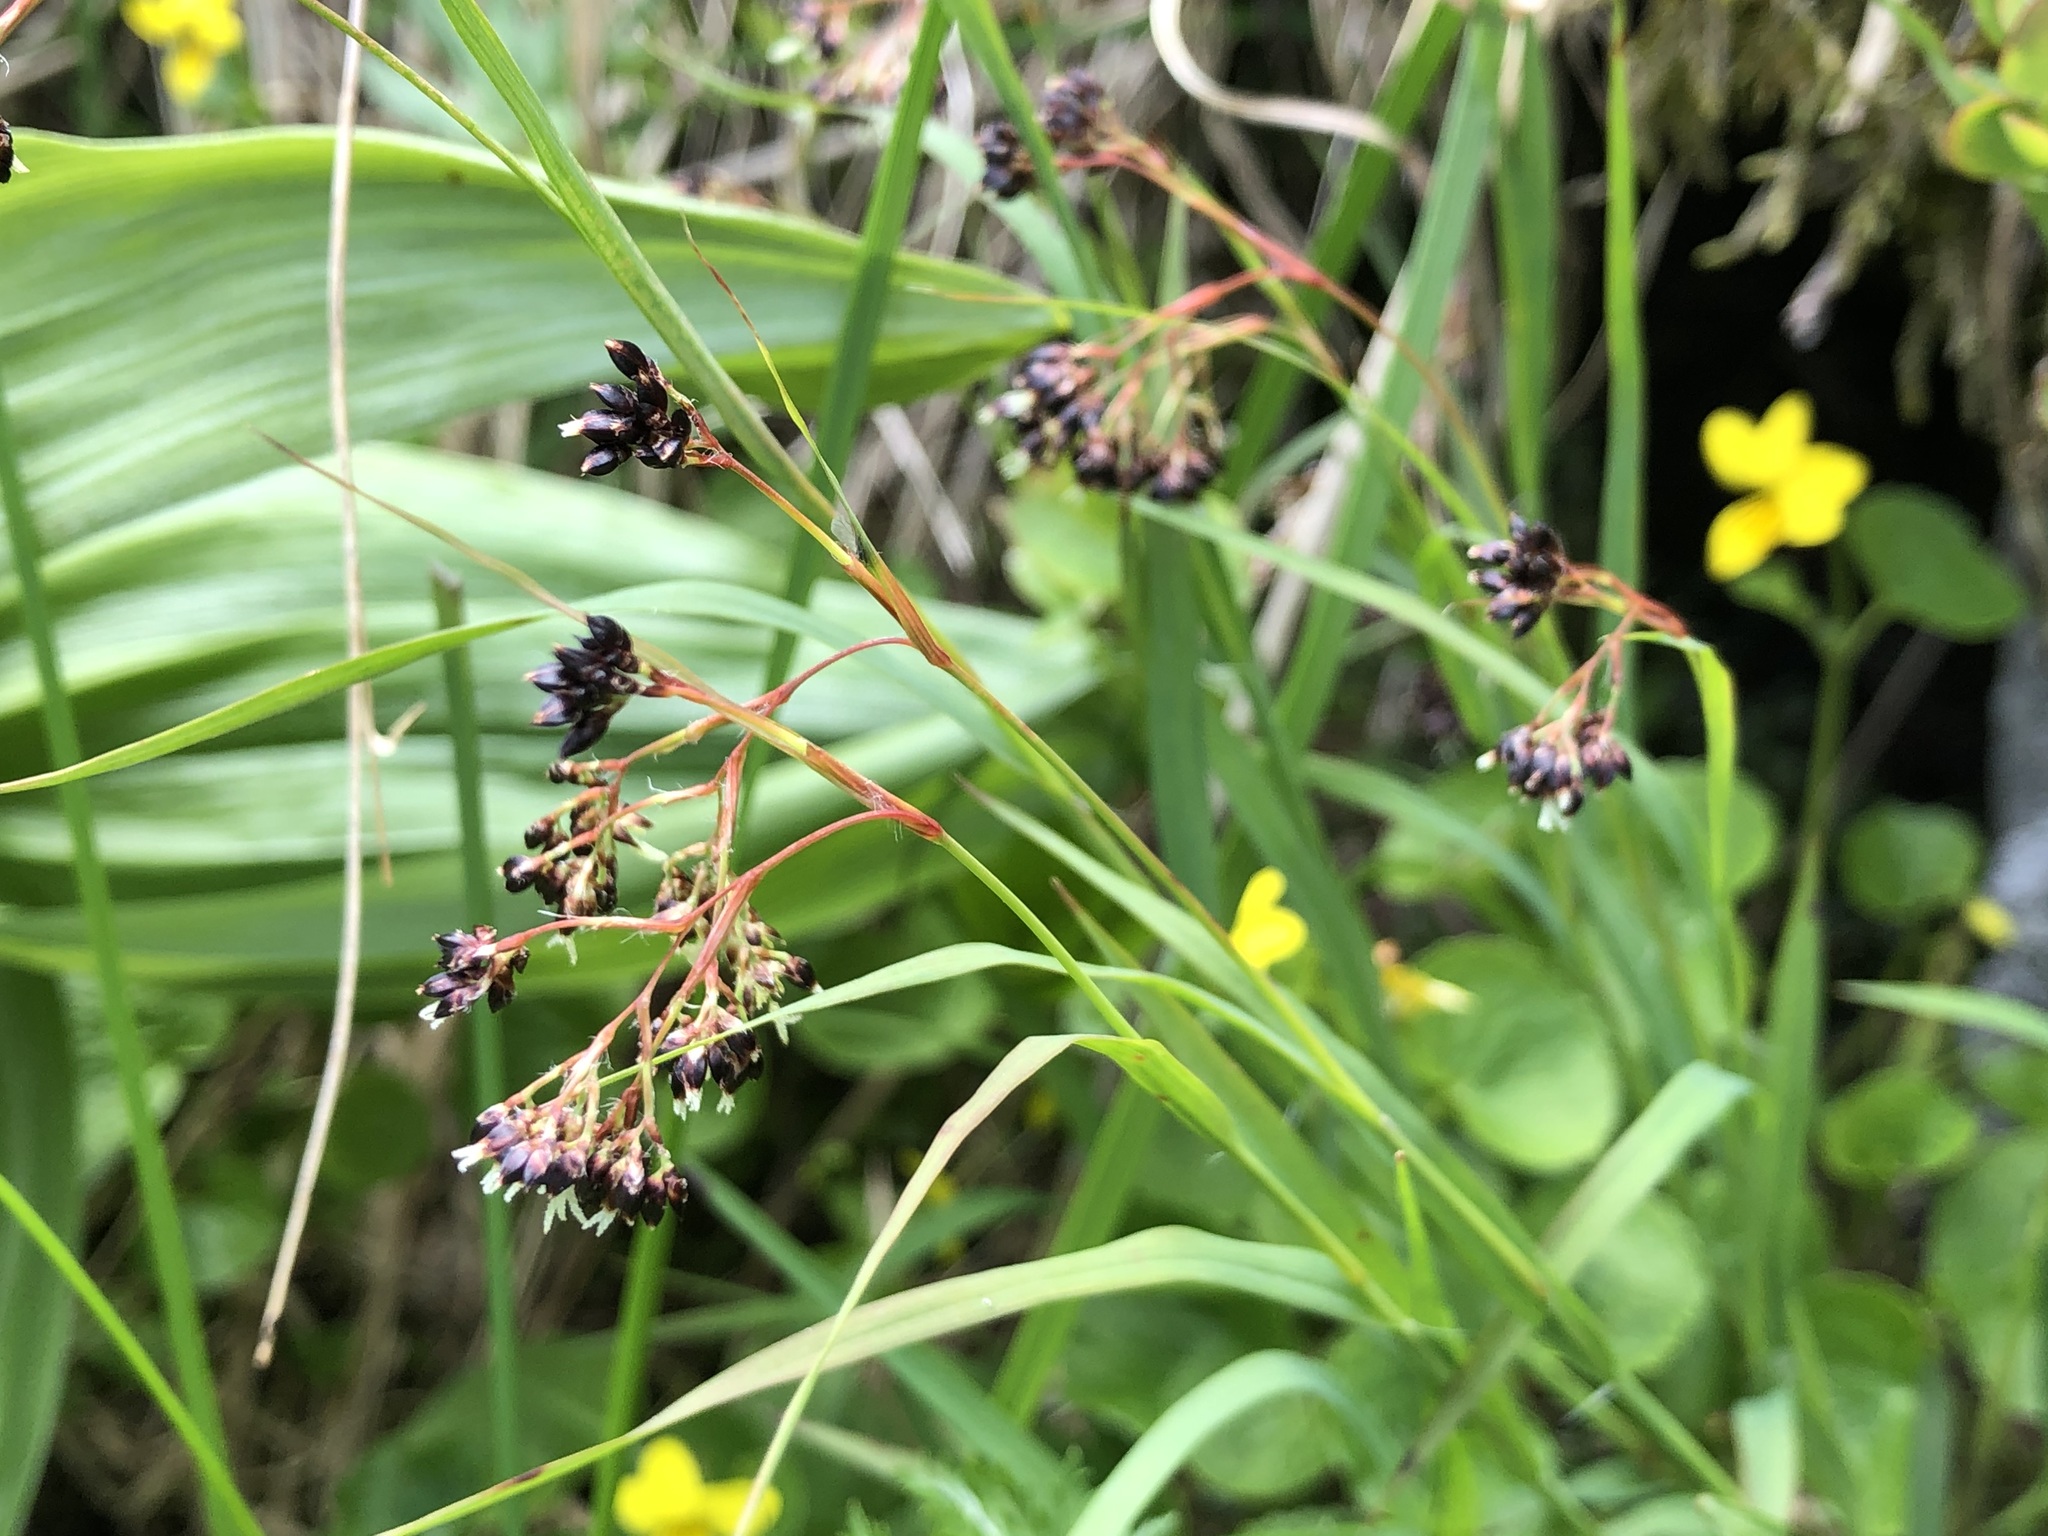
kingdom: Plantae
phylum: Tracheophyta
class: Liliopsida
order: Poales
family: Juncaceae
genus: Luzula
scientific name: Luzula alpinopilosa
